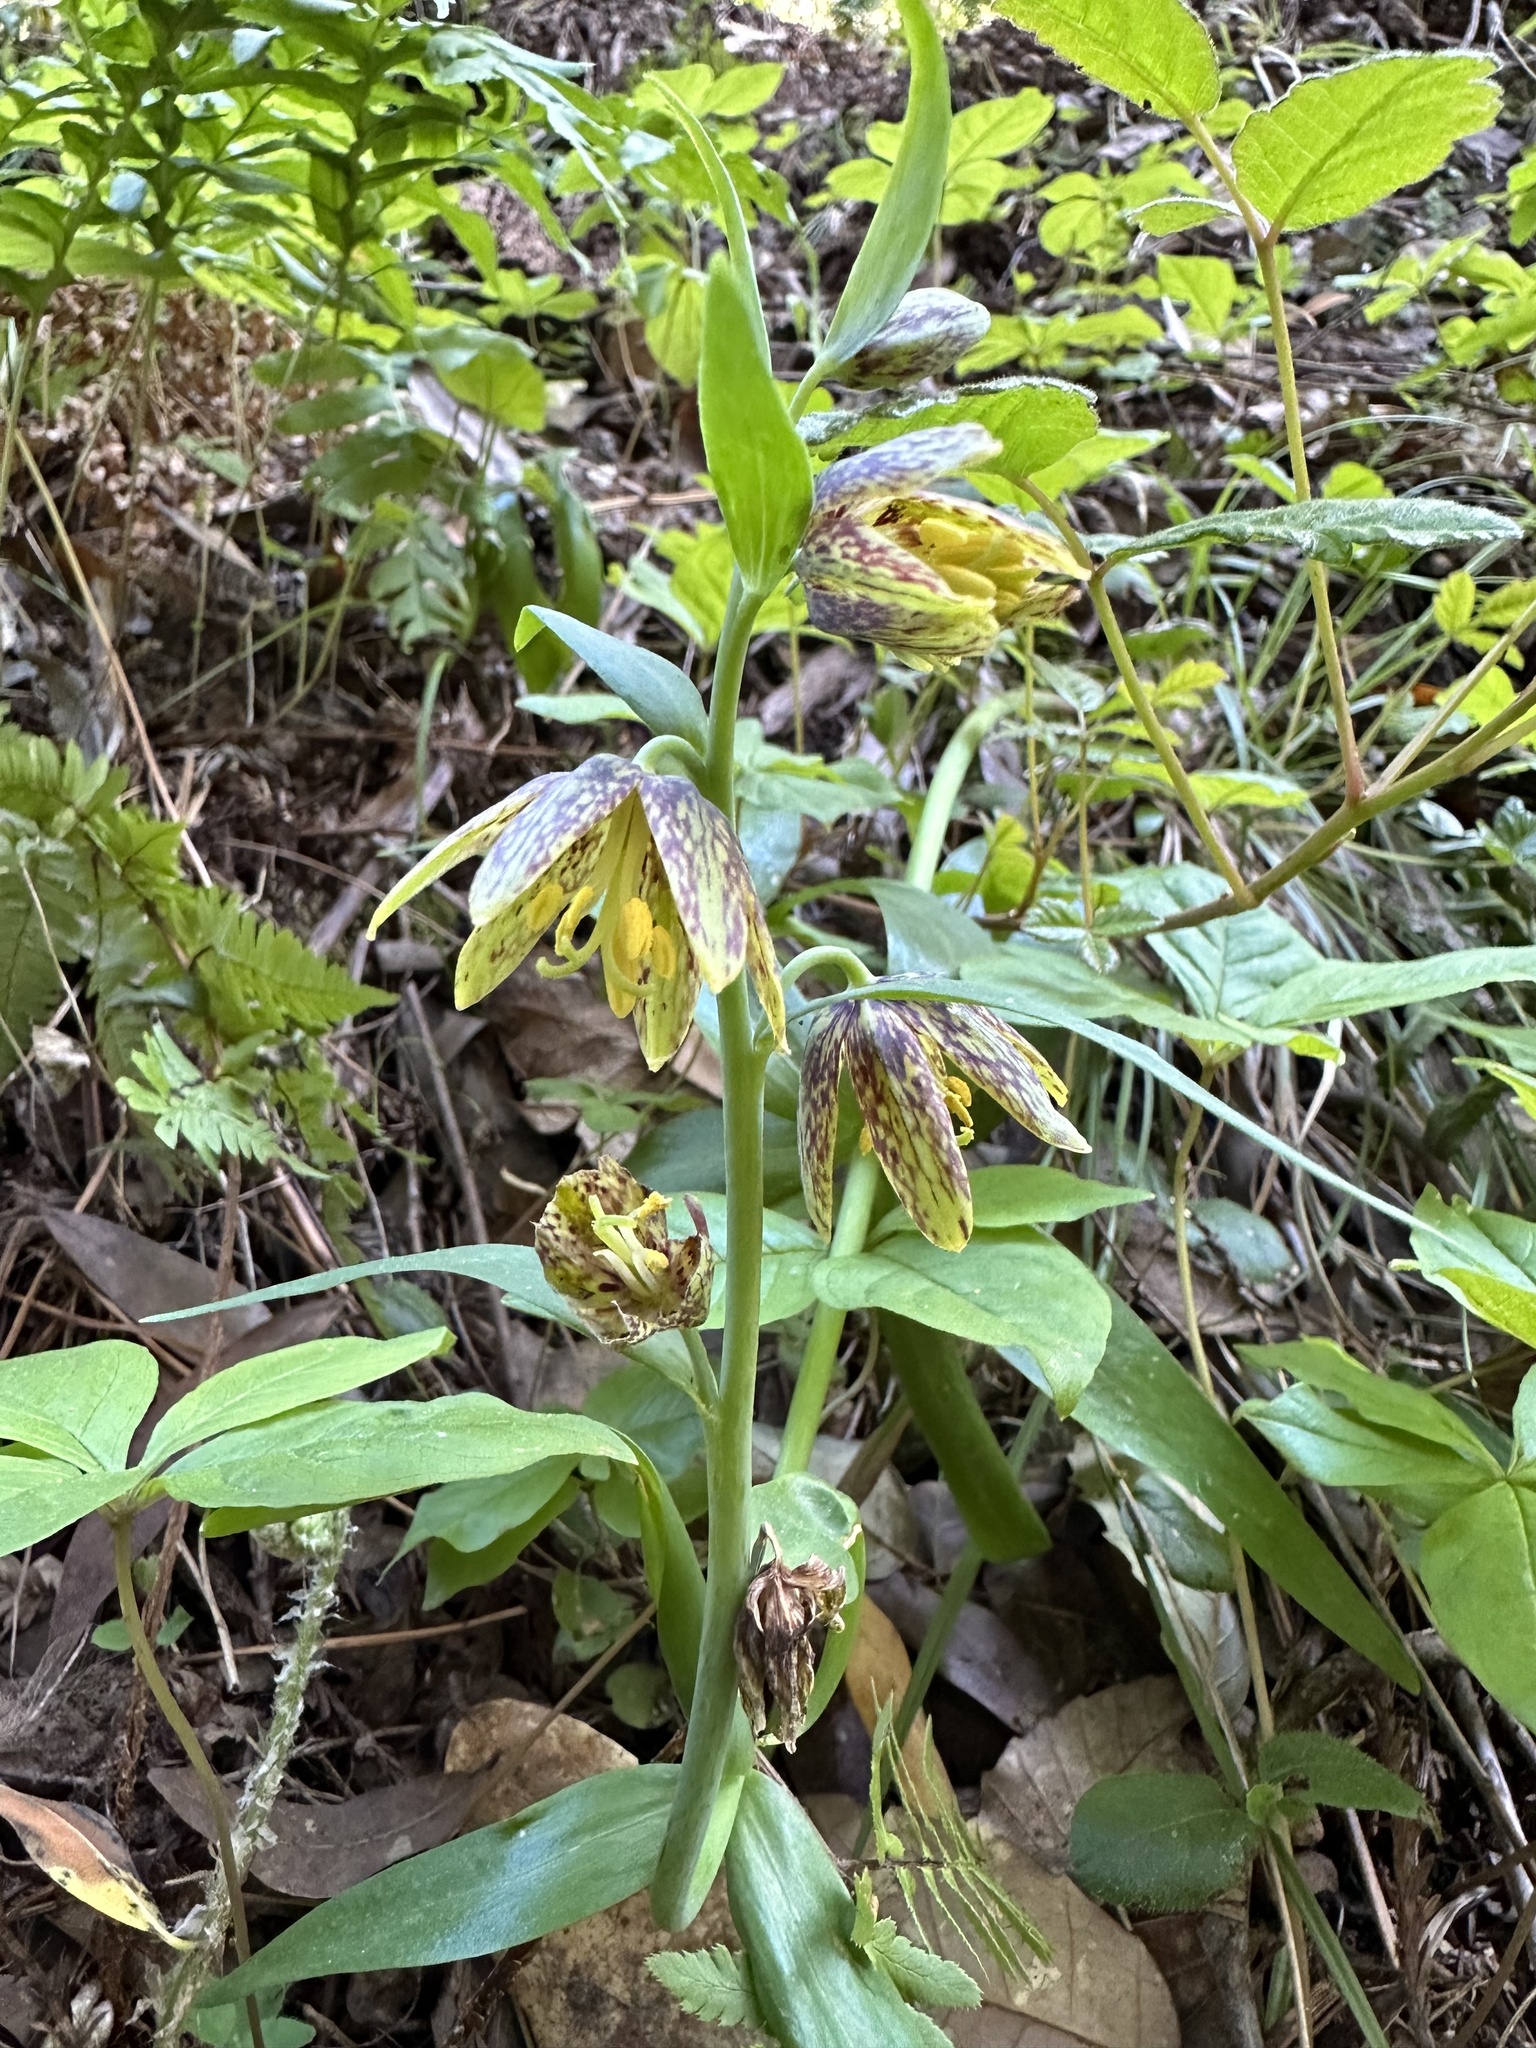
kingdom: Plantae
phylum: Tracheophyta
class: Liliopsida
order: Liliales
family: Liliaceae
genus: Fritillaria
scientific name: Fritillaria affinis
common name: Ojai fritillary
